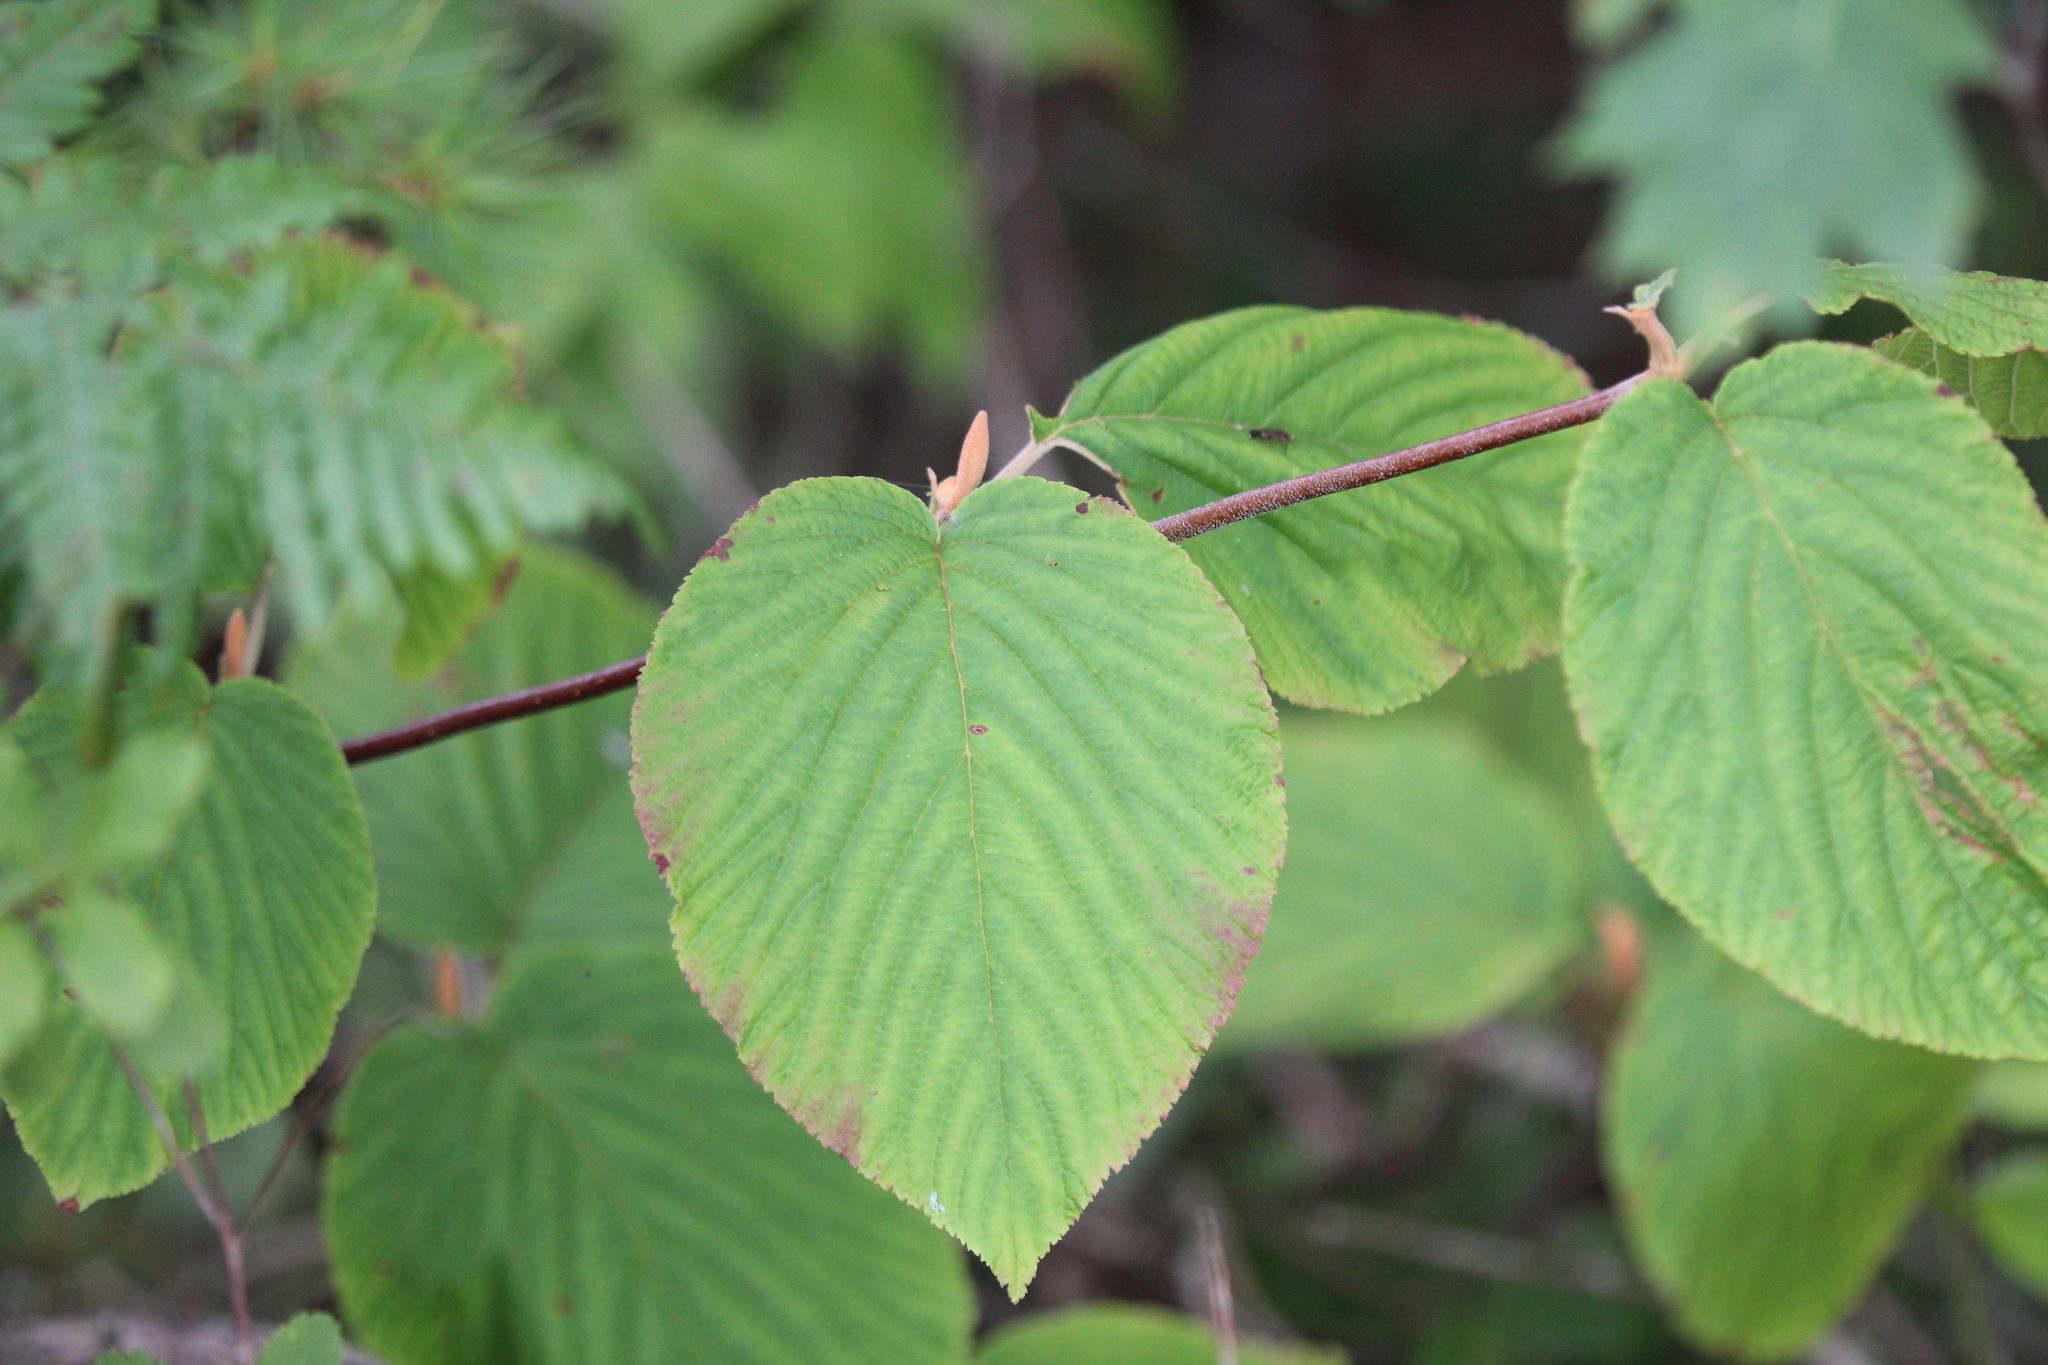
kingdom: Plantae
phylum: Tracheophyta
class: Magnoliopsida
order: Dipsacales
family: Viburnaceae
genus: Viburnum
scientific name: Viburnum lantanoides
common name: Hobblebush
